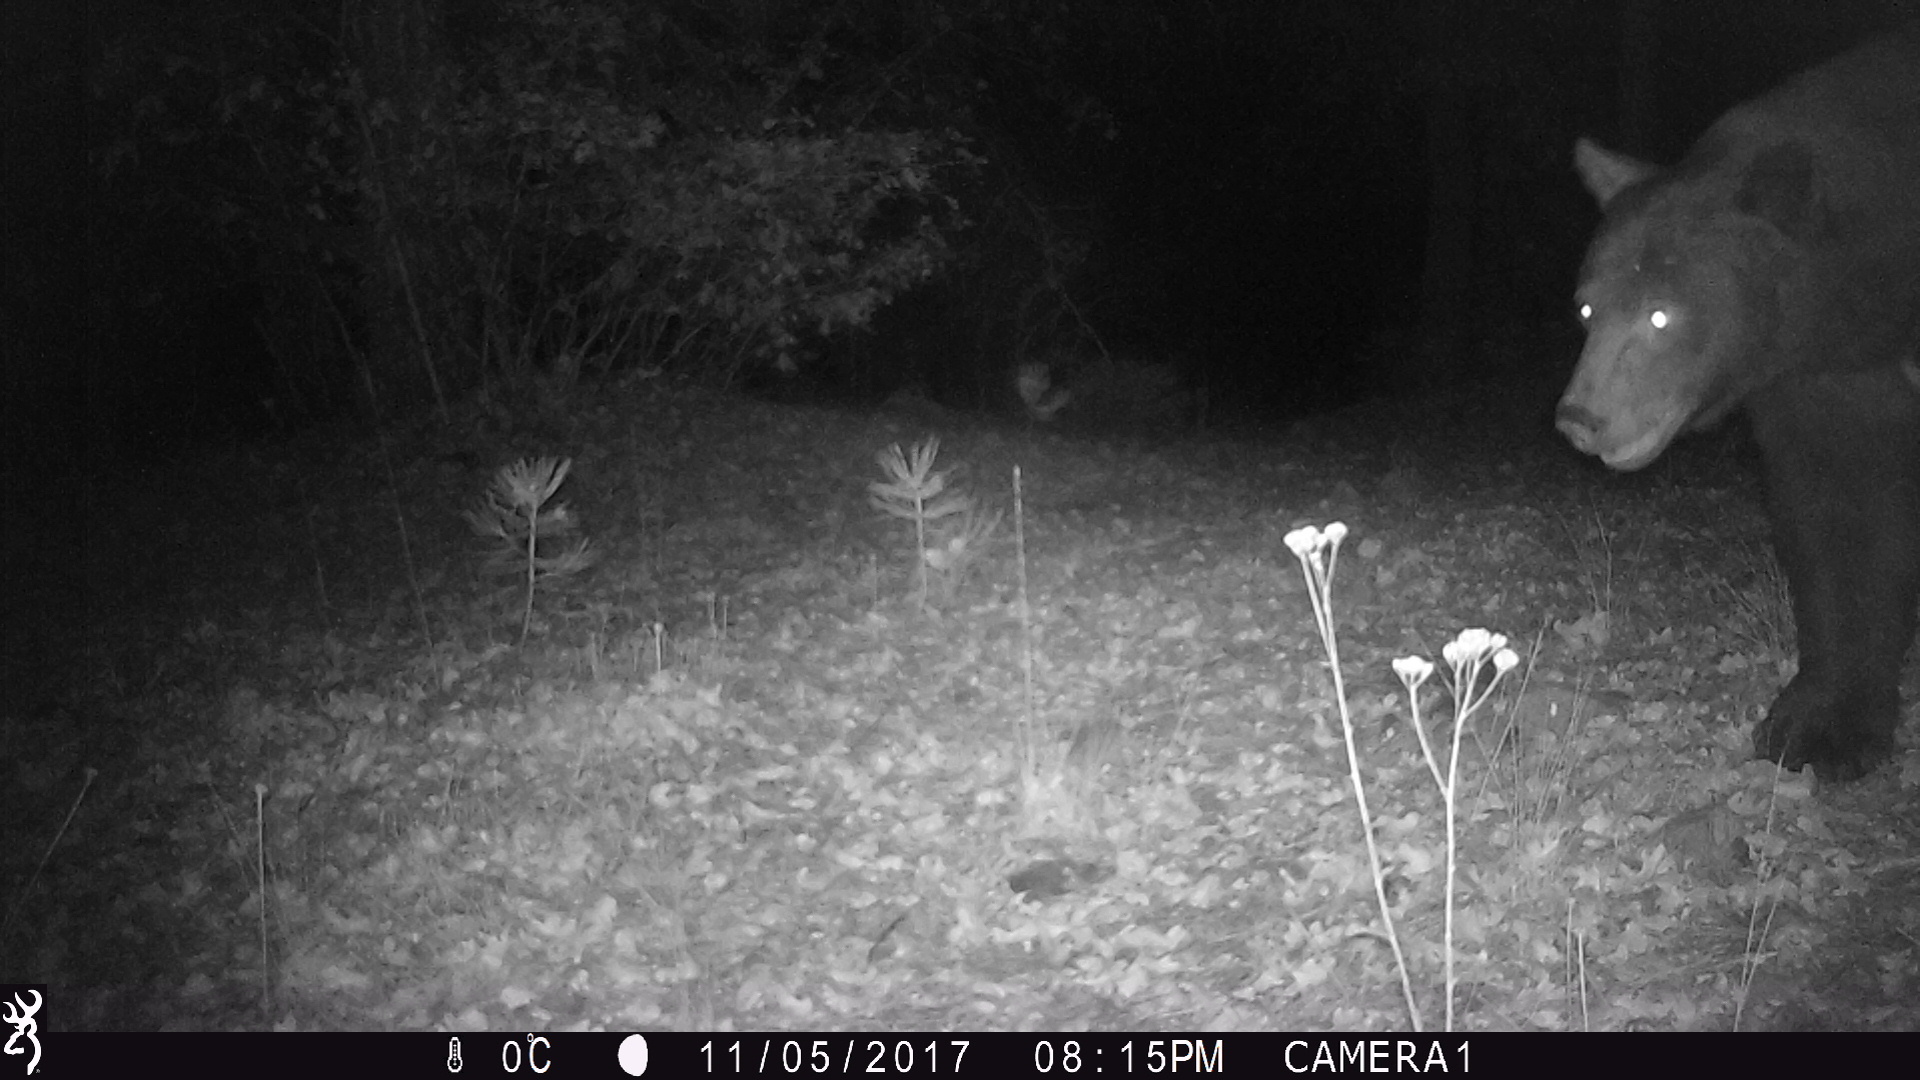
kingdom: Animalia
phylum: Chordata
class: Mammalia
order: Carnivora
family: Ursidae
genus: Ursus
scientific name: Ursus americanus
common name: American black bear
